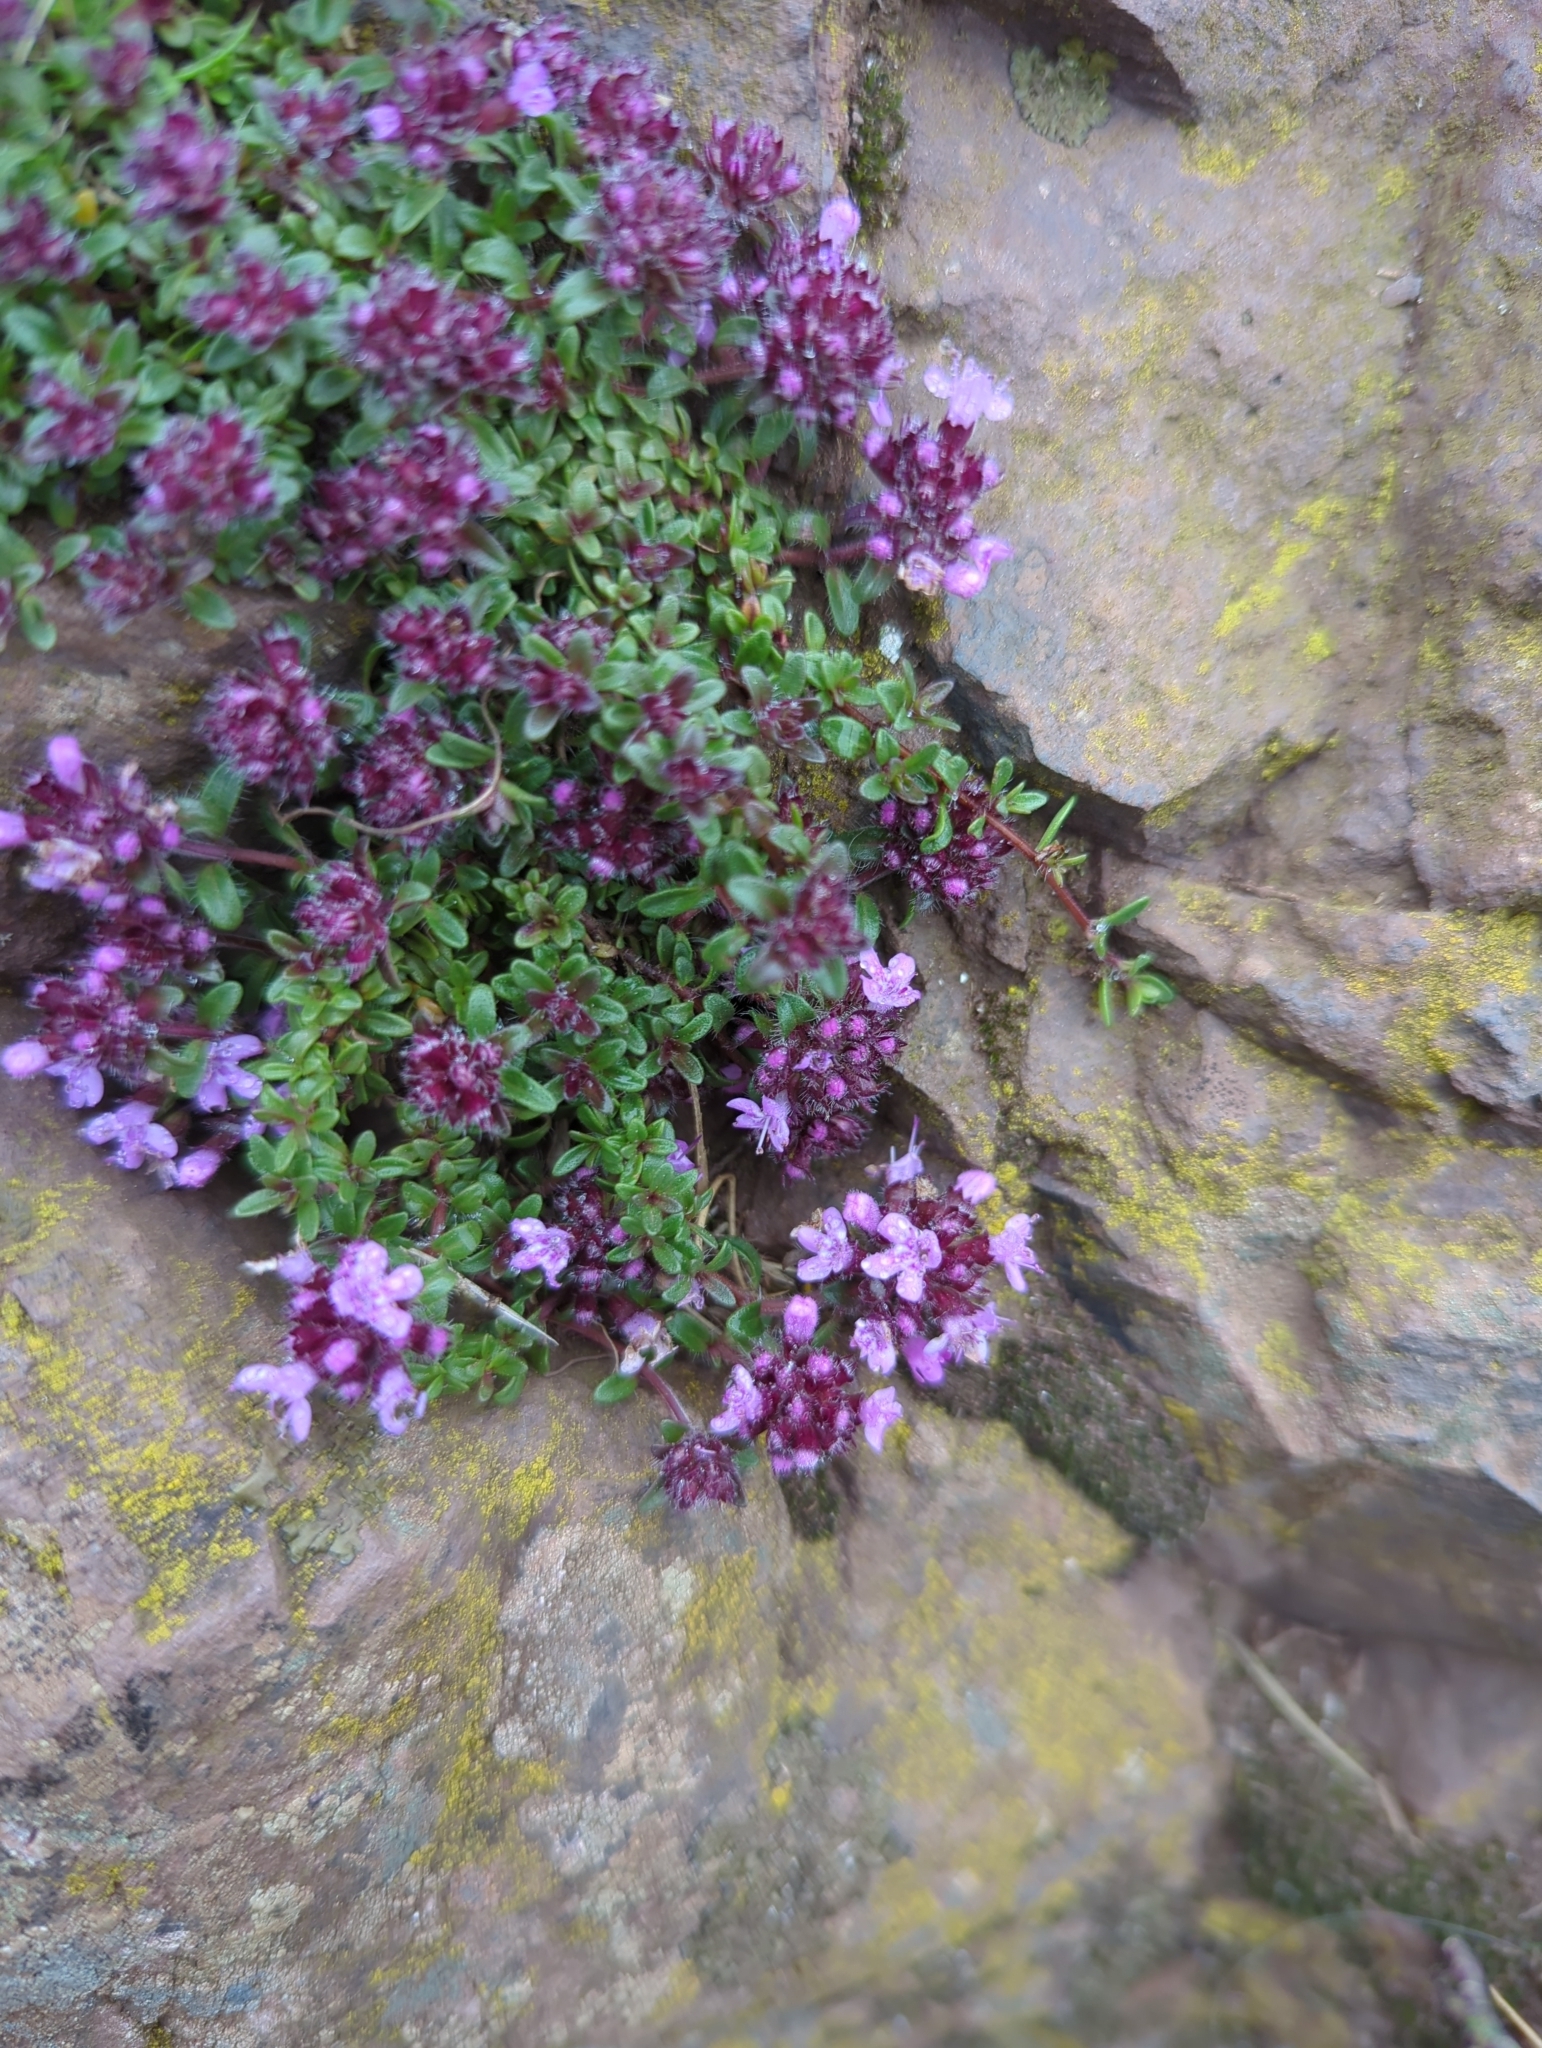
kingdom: Plantae
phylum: Tracheophyta
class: Magnoliopsida
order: Lamiales
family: Lamiaceae
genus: Thymus
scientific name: Thymus praecox
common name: Wild thyme
